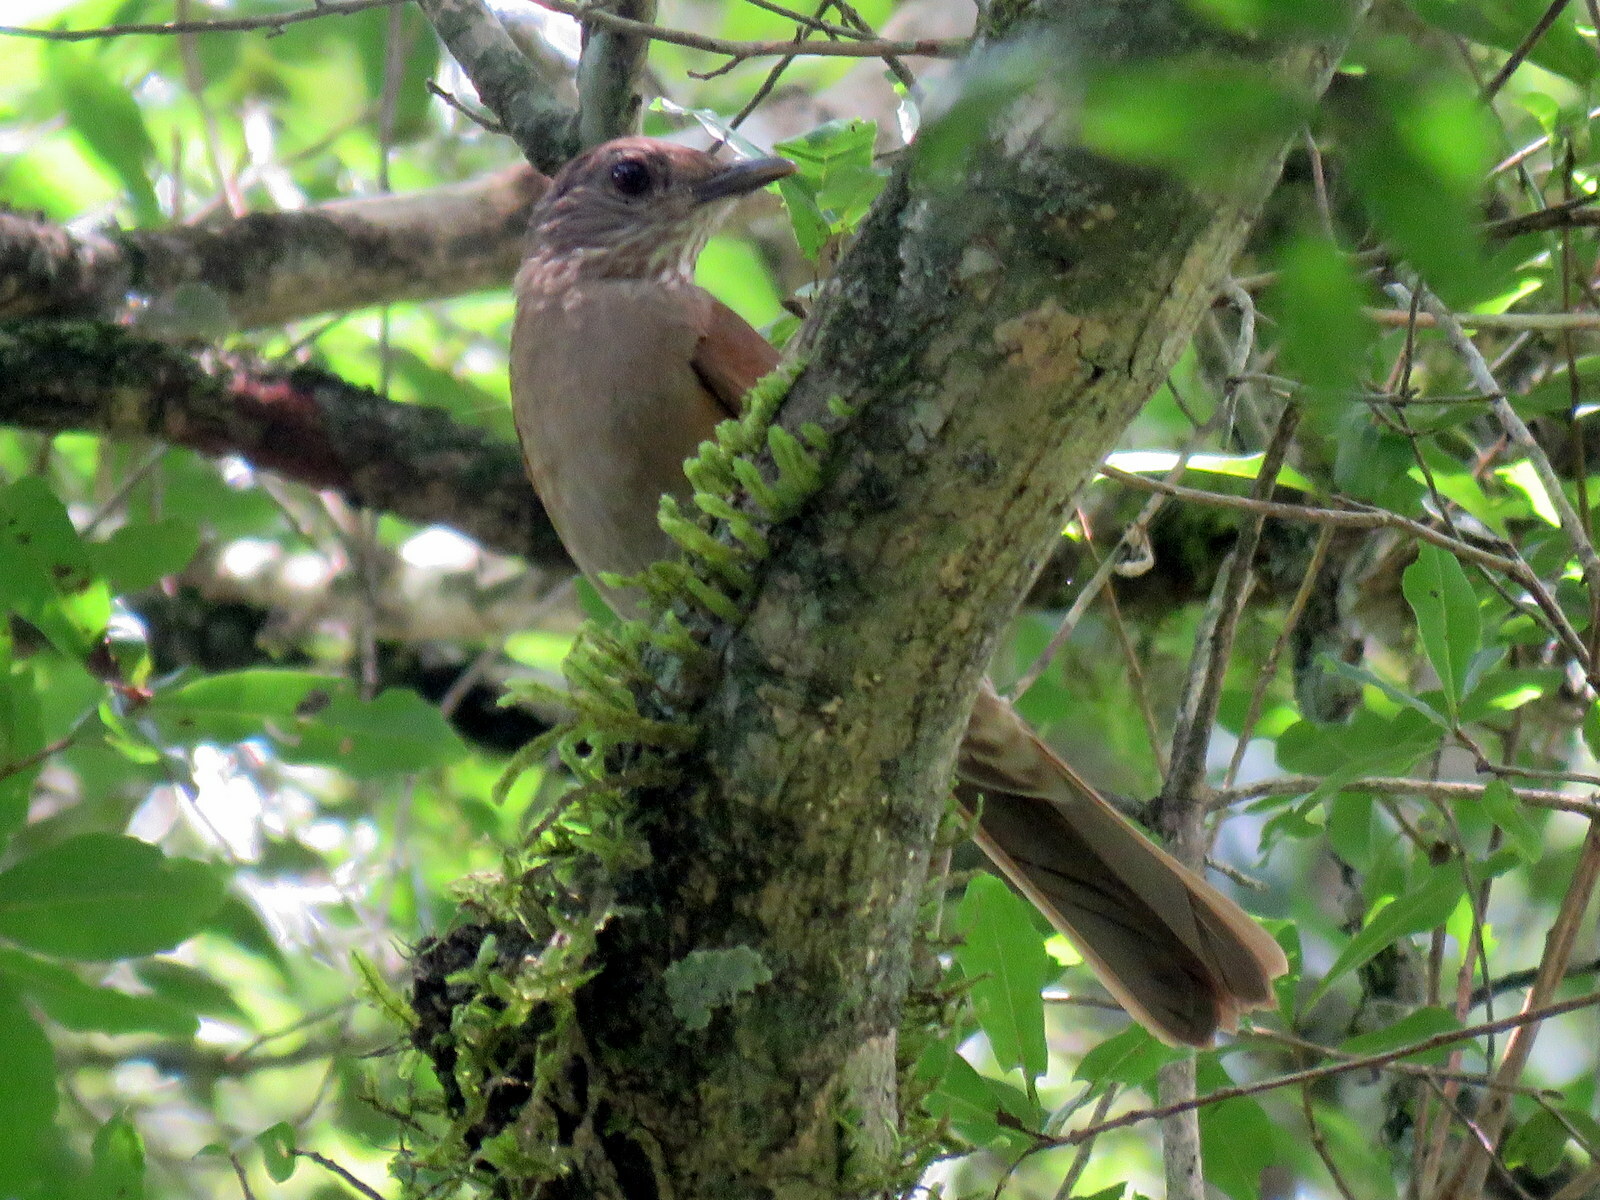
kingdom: Animalia
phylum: Chordata
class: Aves
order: Passeriformes
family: Turdidae
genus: Turdus
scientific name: Turdus leucomelas
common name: Pale-breasted thrush
